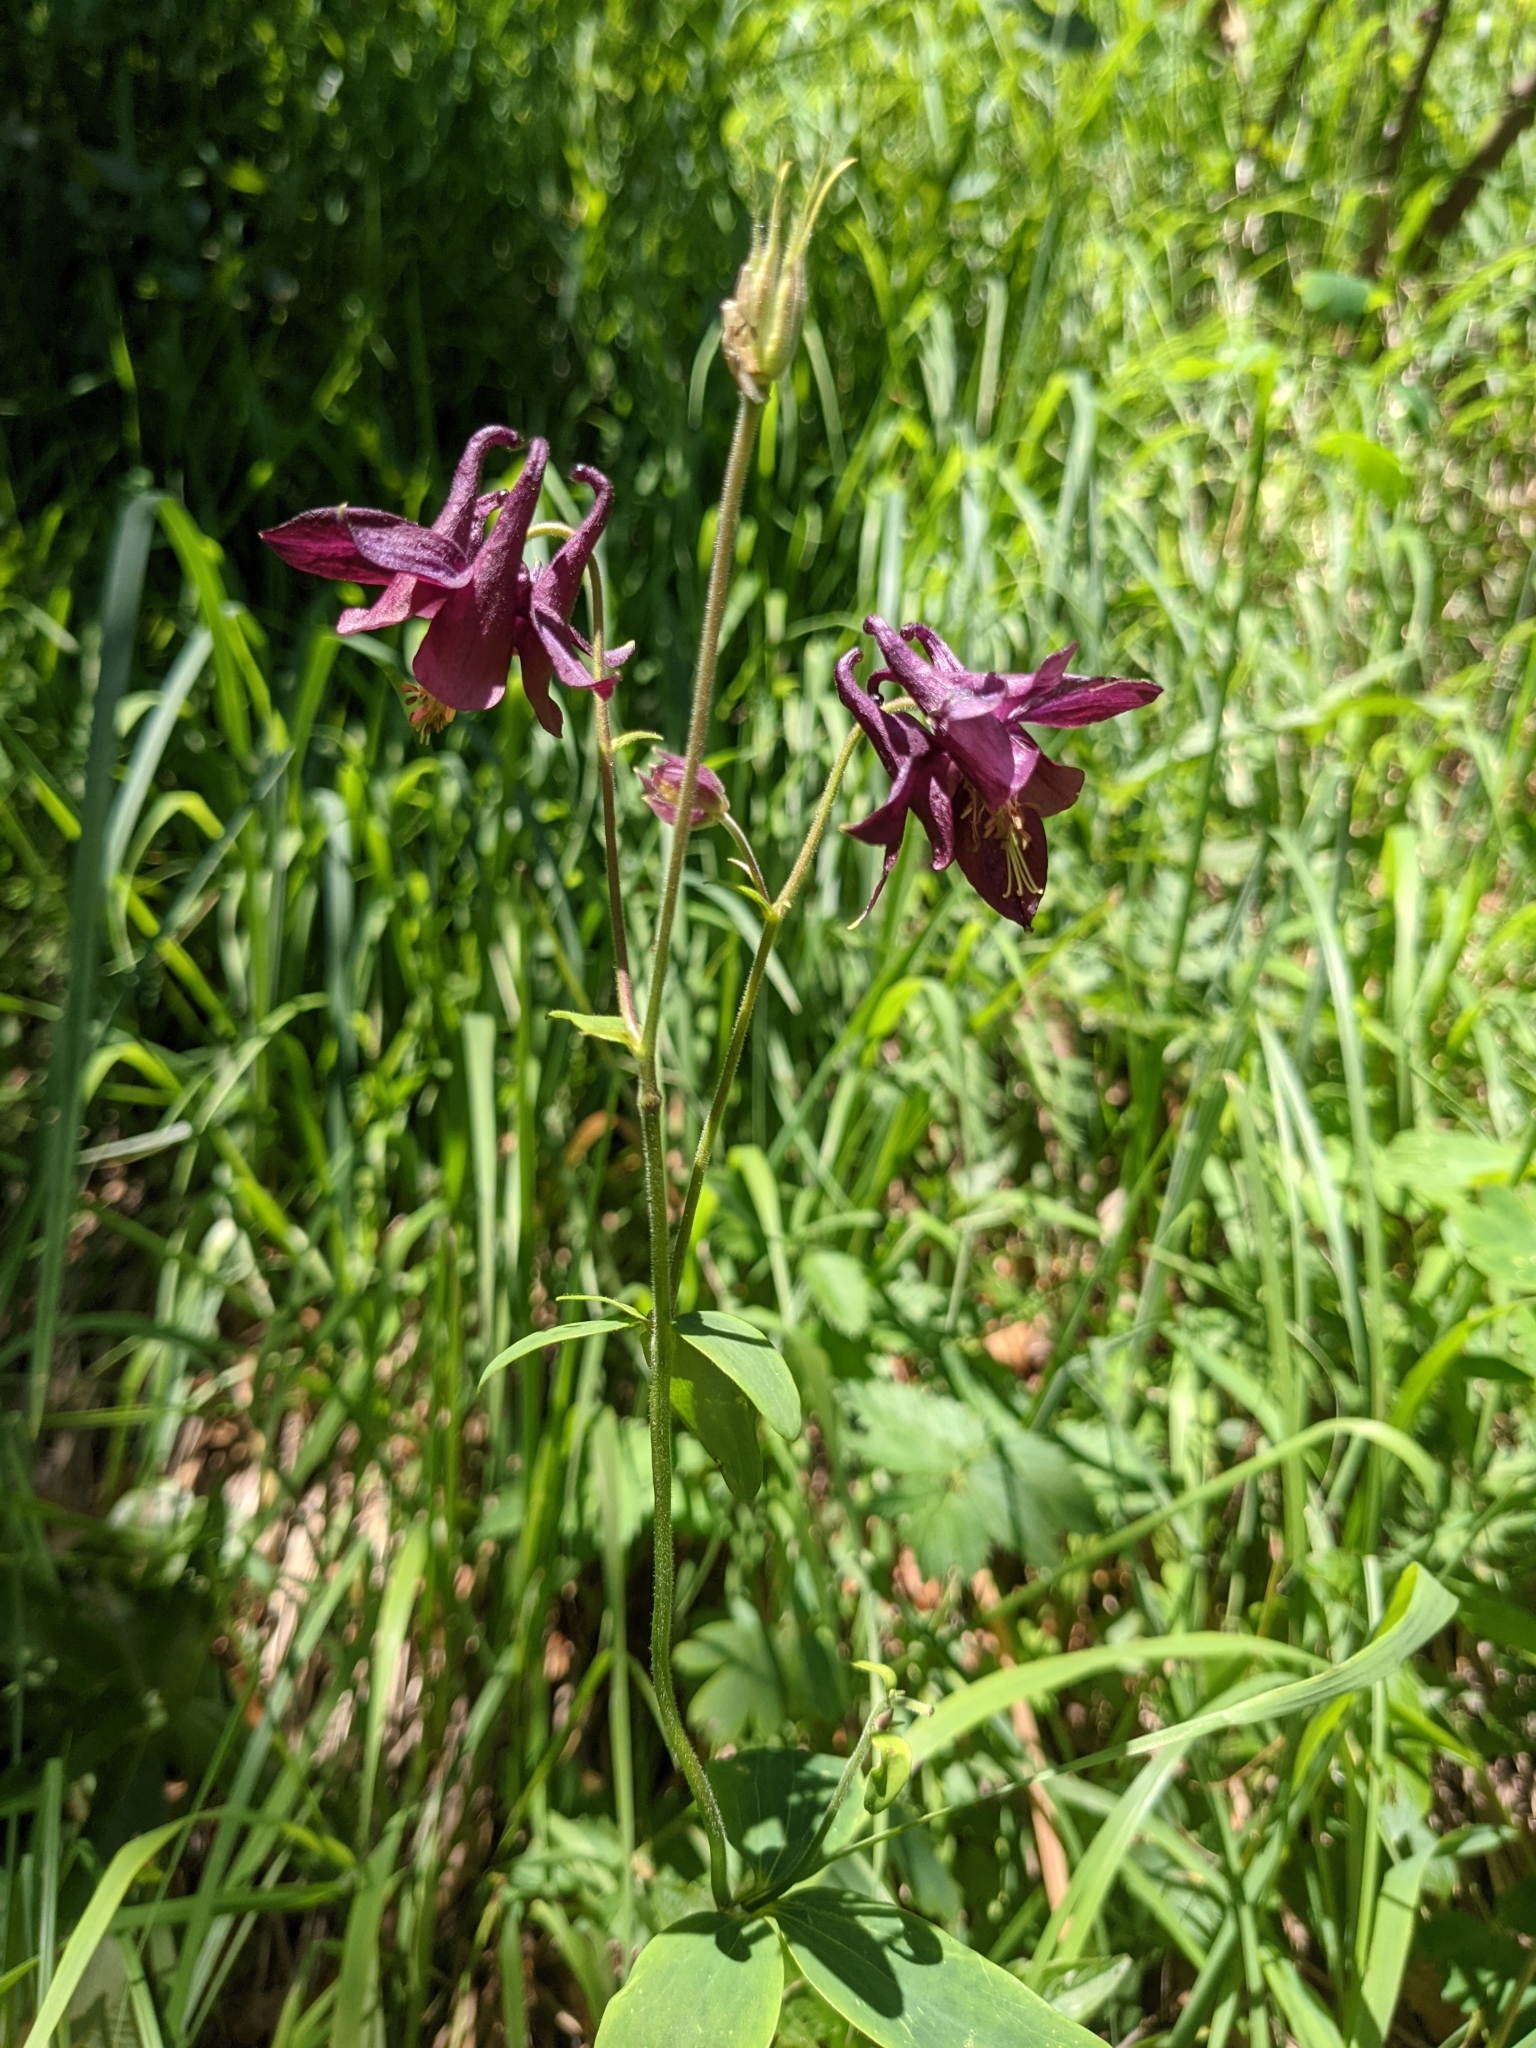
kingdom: Plantae
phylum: Tracheophyta
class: Magnoliopsida
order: Ranunculales
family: Ranunculaceae
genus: Aquilegia
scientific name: Aquilegia atrata
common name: Dark columbine
